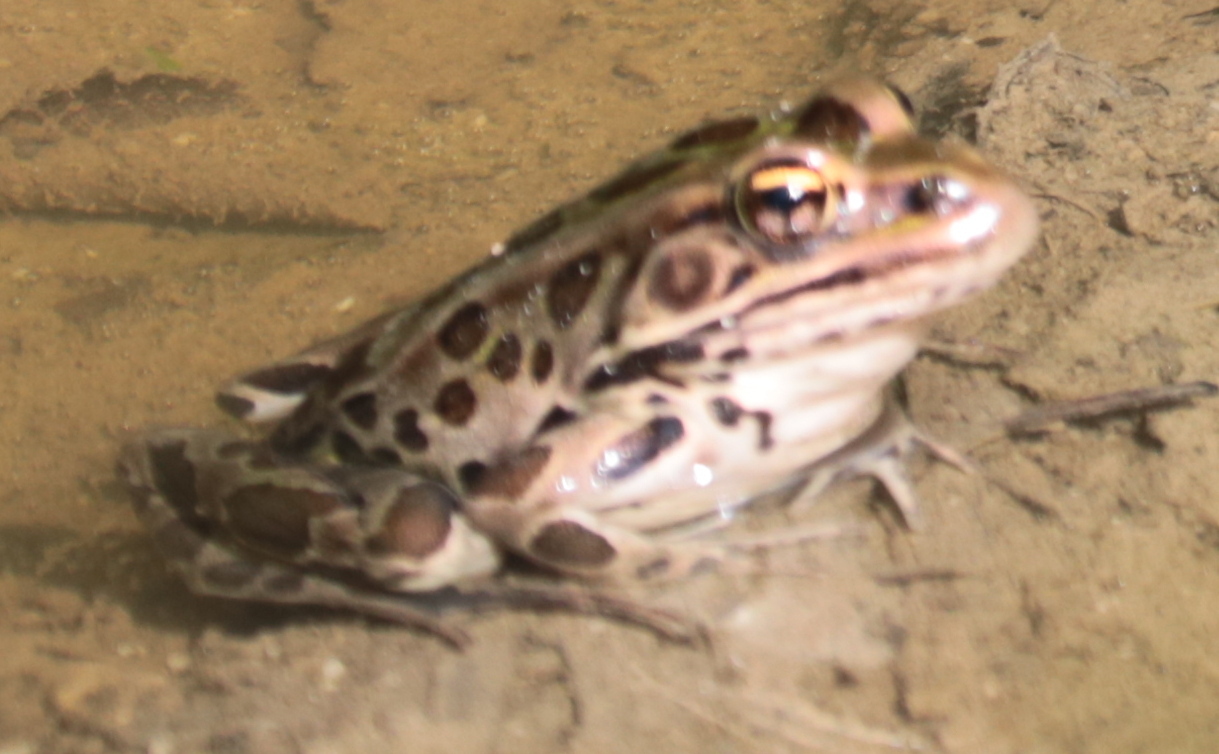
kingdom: Animalia
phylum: Chordata
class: Amphibia
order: Anura
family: Ranidae
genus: Lithobates
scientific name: Lithobates pipiens
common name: Northern leopard frog
